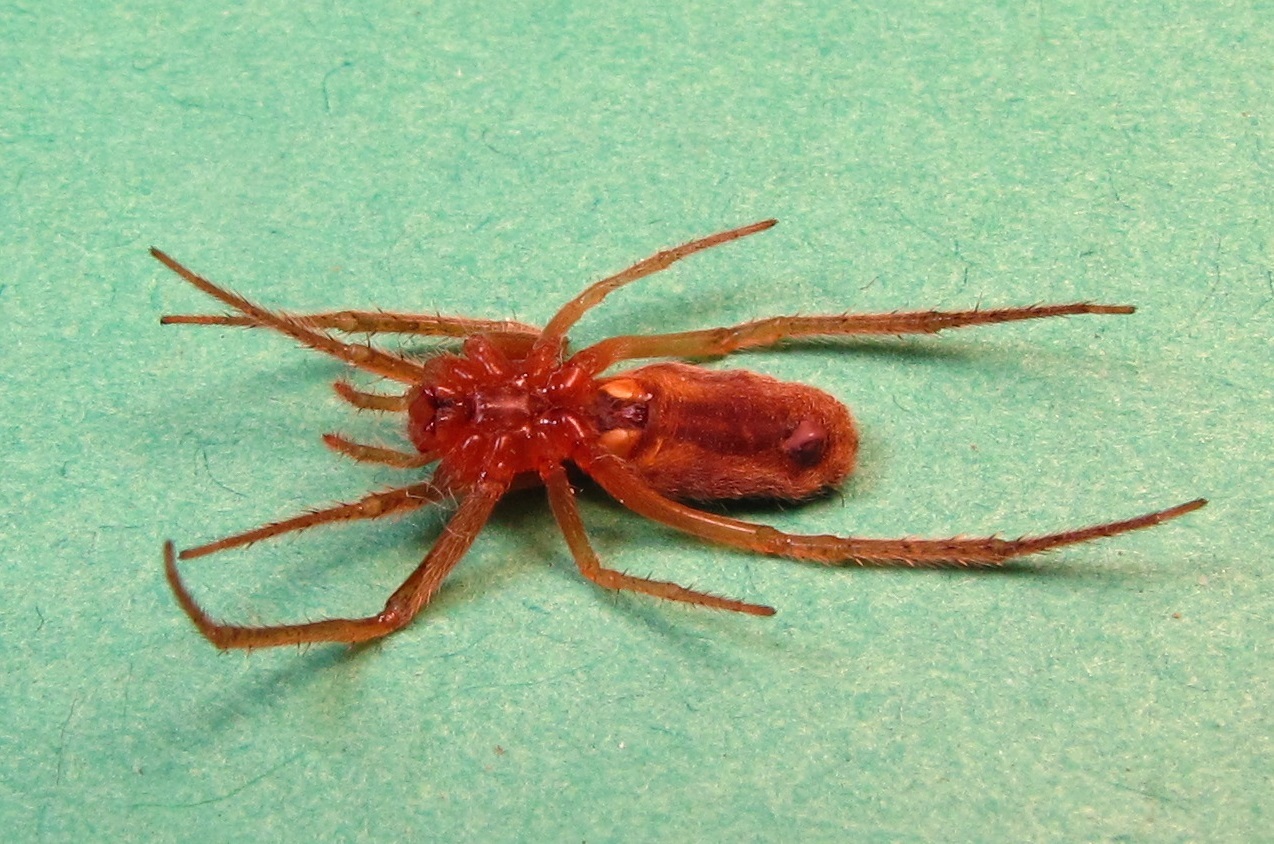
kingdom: Animalia
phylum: Arthropoda
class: Arachnida
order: Araneae
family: Araneidae
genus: Larinia
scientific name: Larinia directa
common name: Orb weavers
